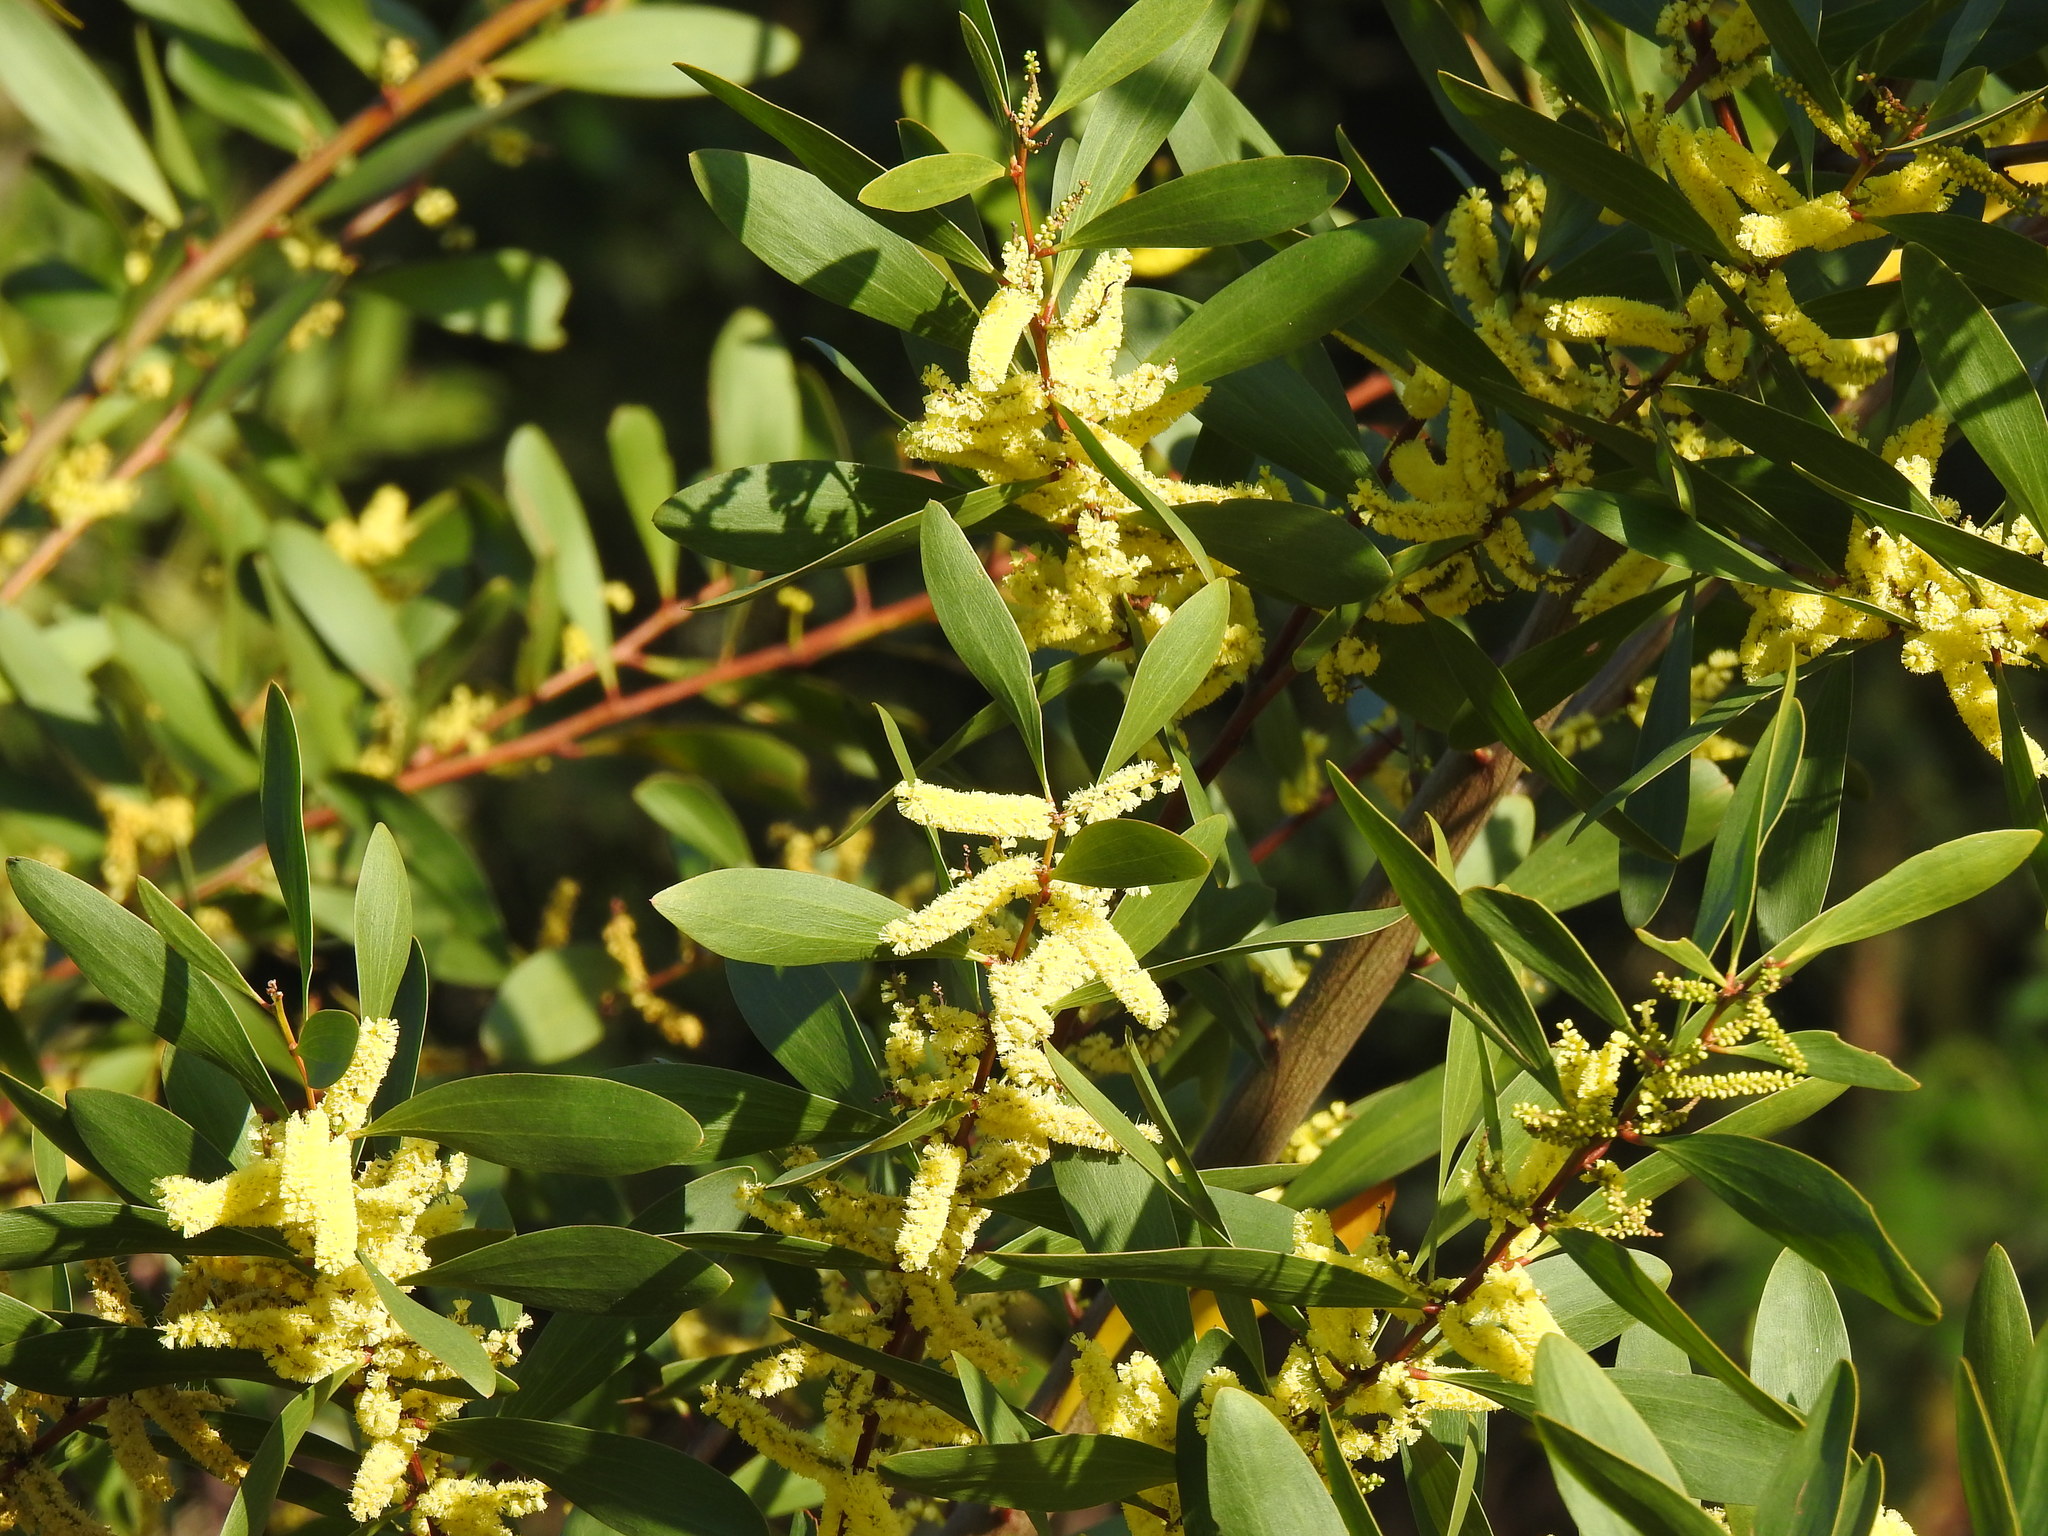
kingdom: Plantae
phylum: Tracheophyta
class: Magnoliopsida
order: Fabales
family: Fabaceae
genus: Acacia
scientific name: Acacia longifolia
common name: Sydney golden wattle
